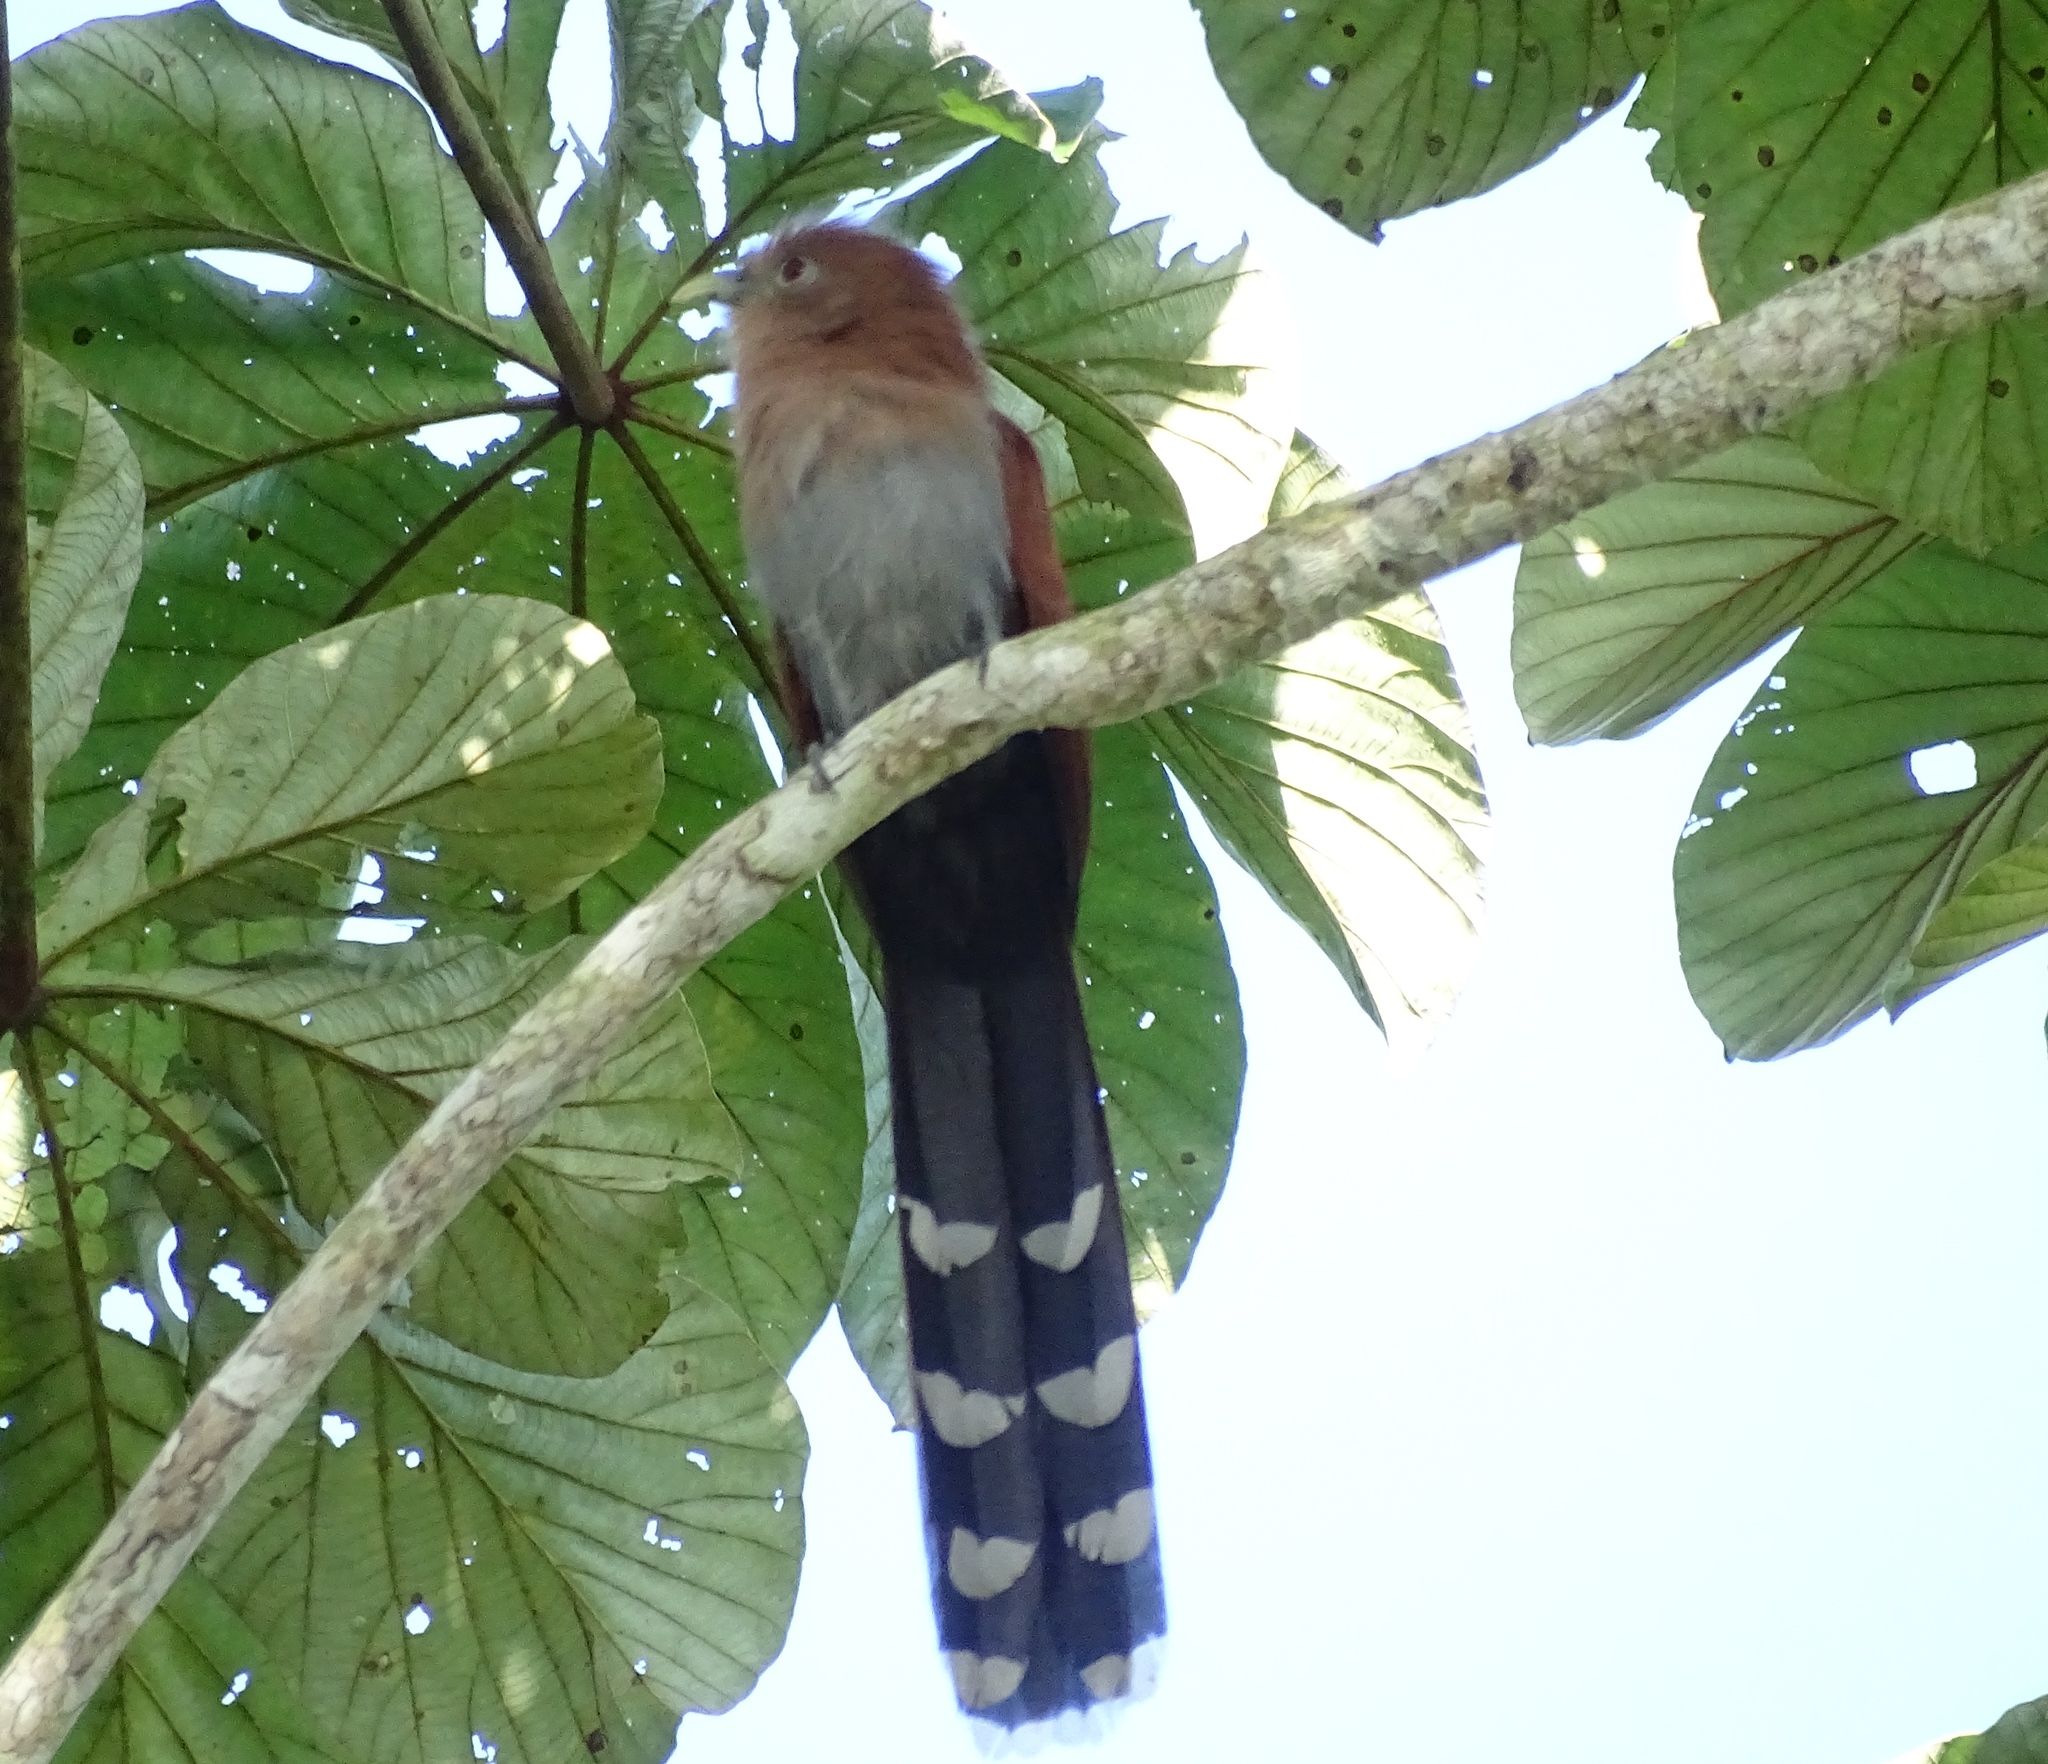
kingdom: Animalia
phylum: Chordata
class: Aves
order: Cuculiformes
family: Cuculidae
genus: Piaya
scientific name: Piaya cayana
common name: Squirrel cuckoo
